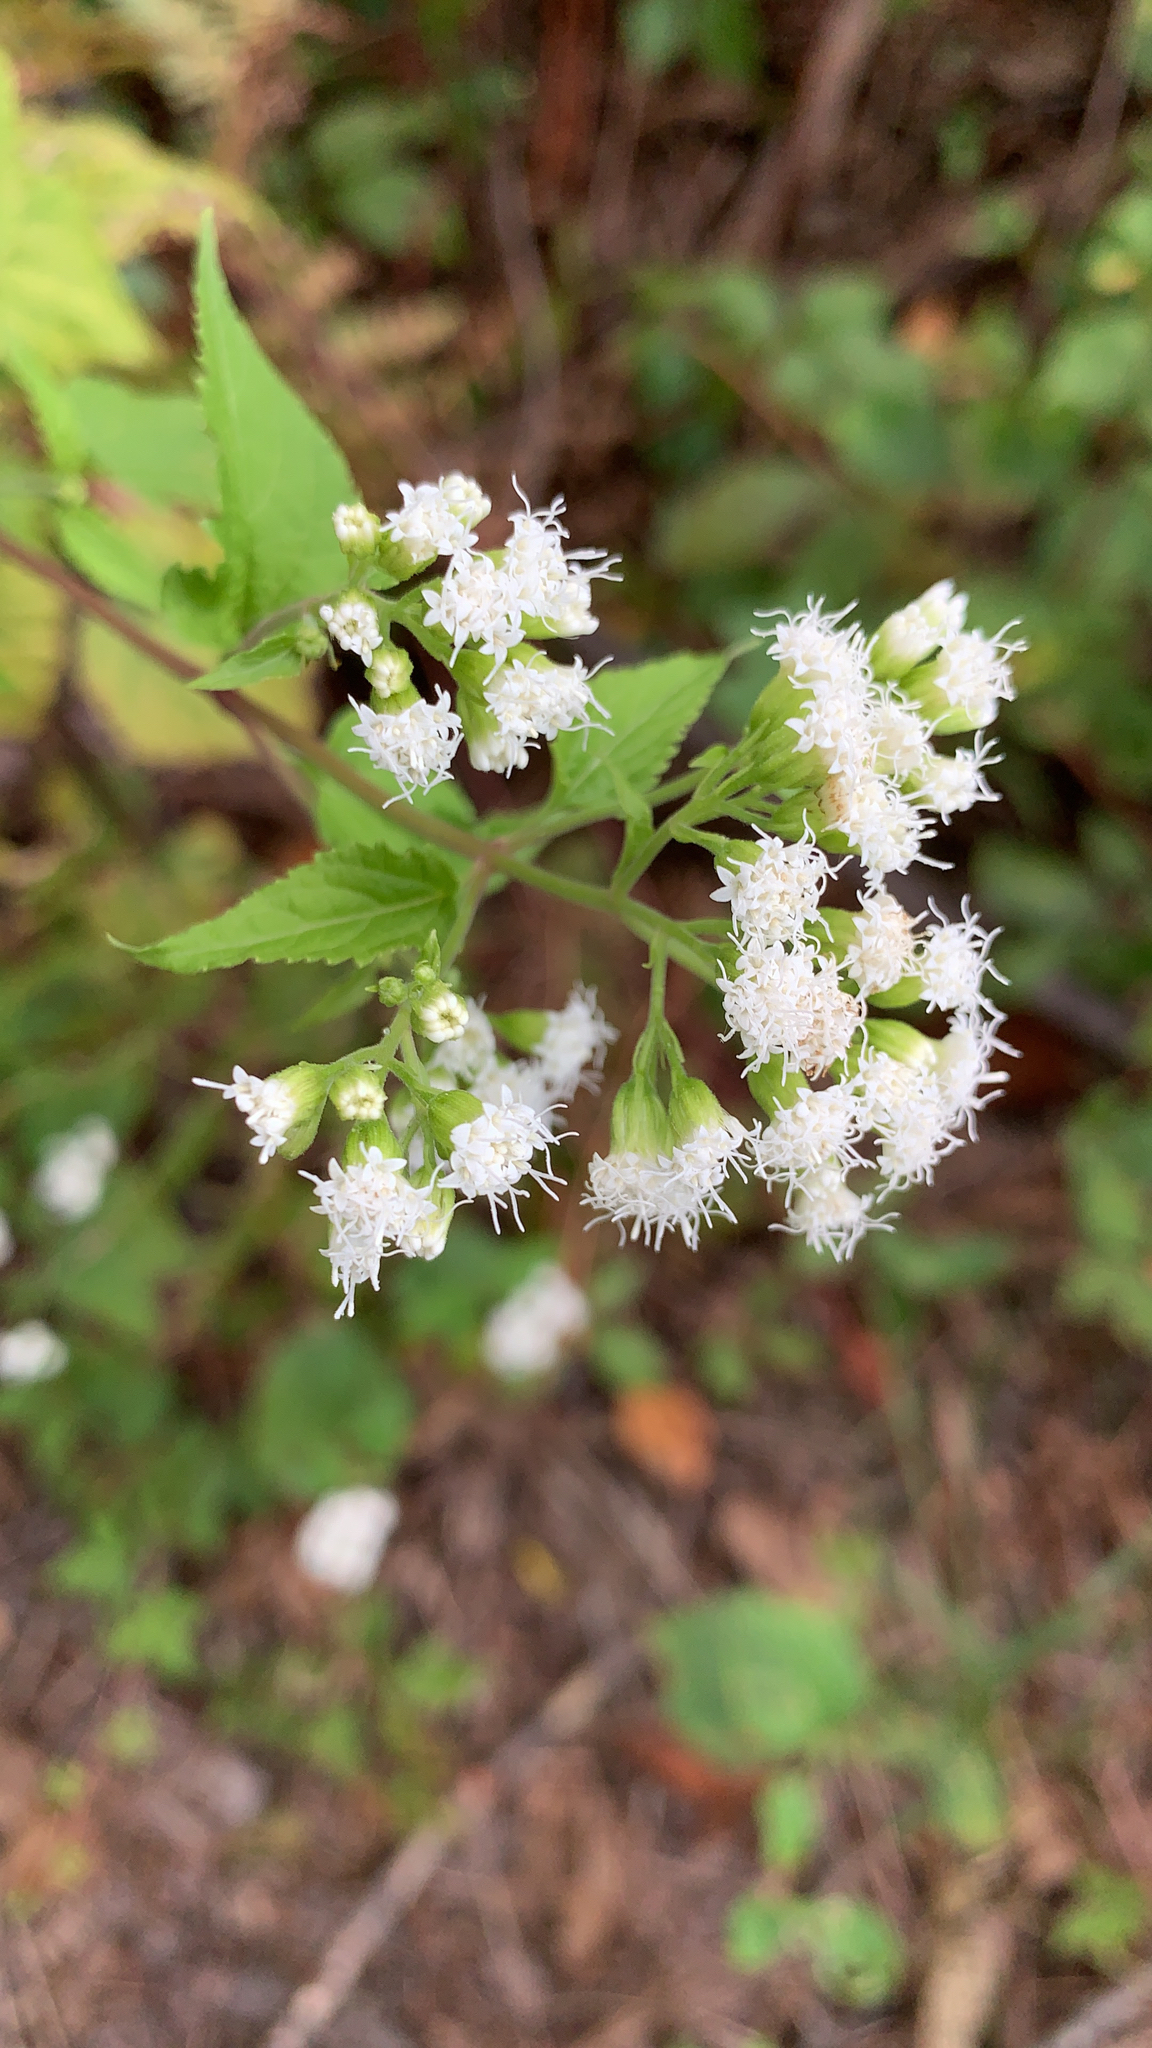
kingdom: Plantae
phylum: Tracheophyta
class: Magnoliopsida
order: Asterales
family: Asteraceae
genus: Ageratina
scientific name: Ageratina altissima
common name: White snakeroot
